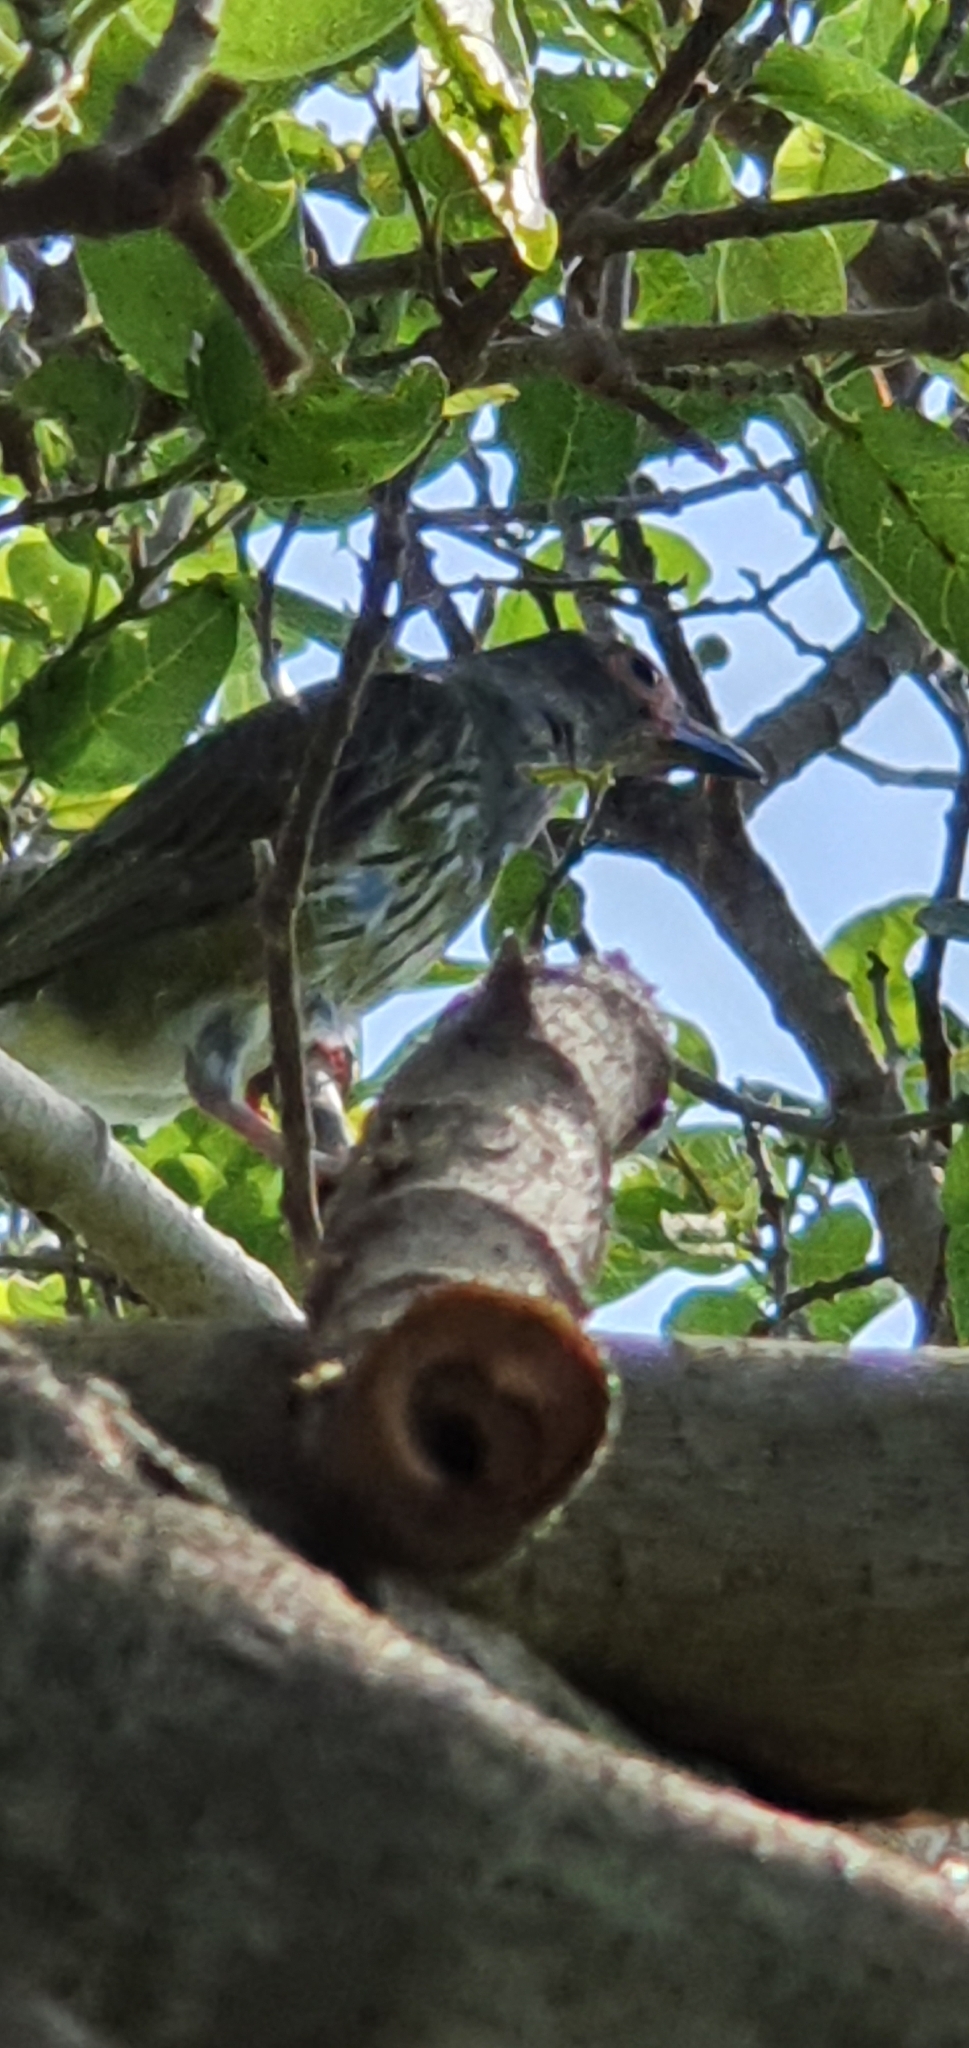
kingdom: Animalia
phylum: Chordata
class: Aves
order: Passeriformes
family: Oriolidae
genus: Sphecotheres
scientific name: Sphecotheres vieilloti
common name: Australasian figbird
